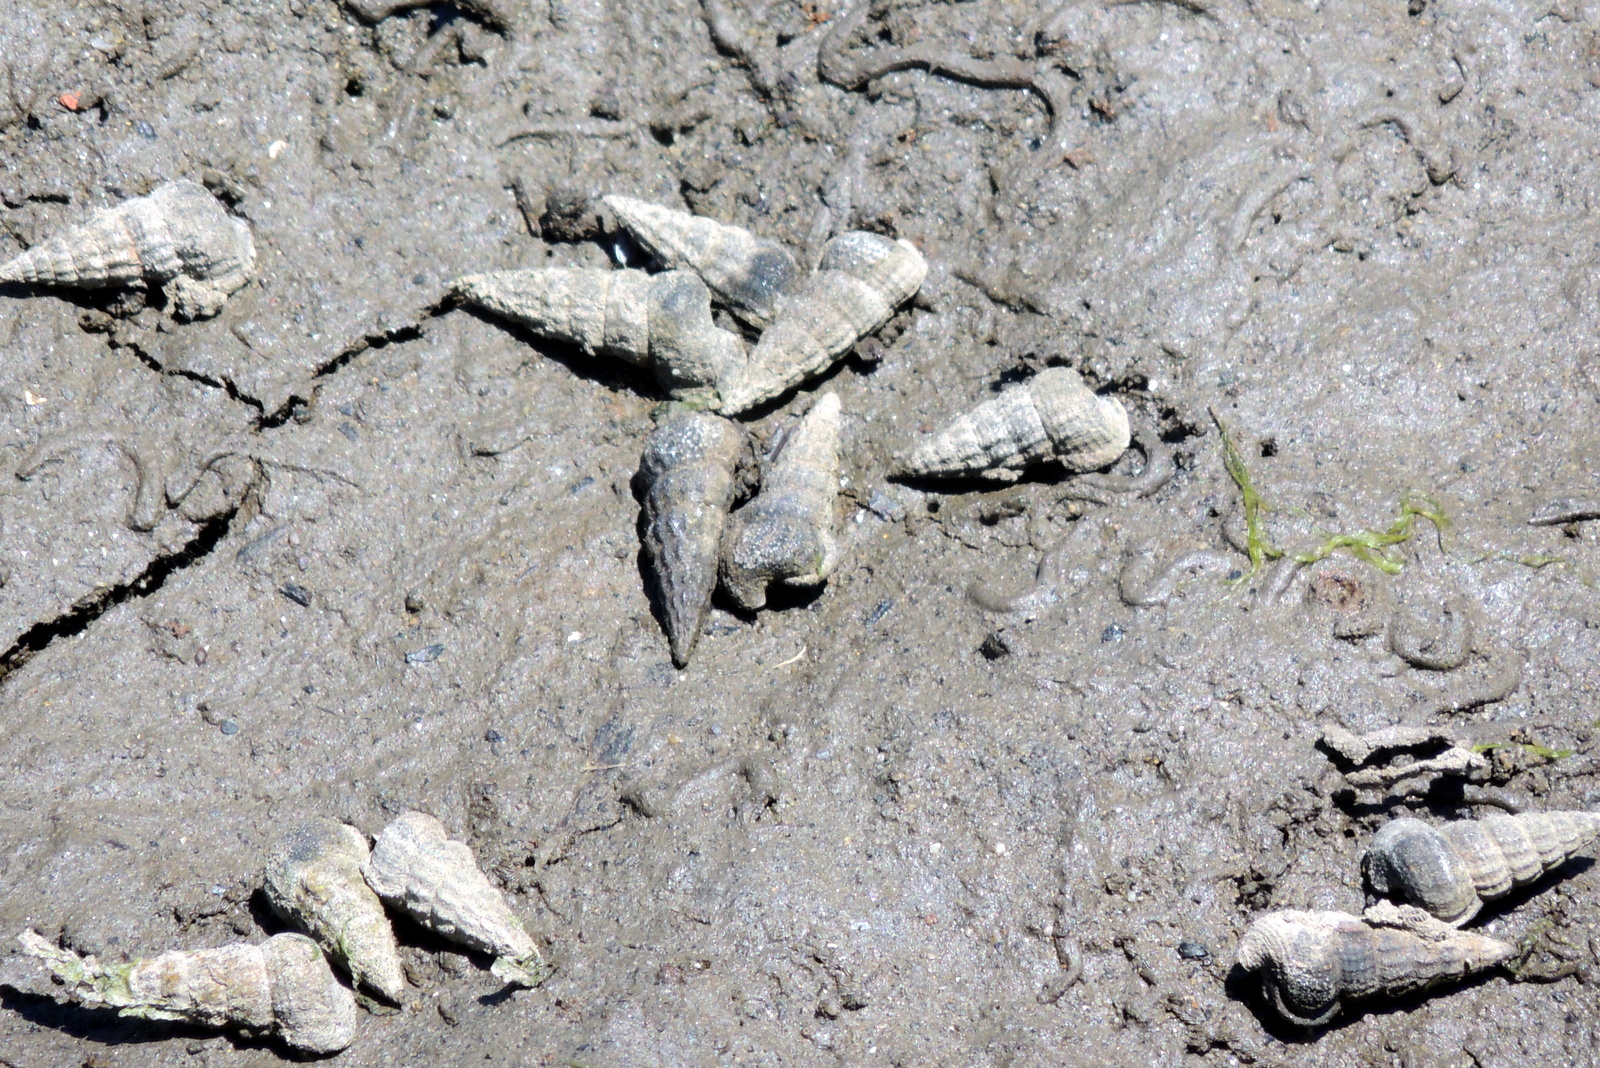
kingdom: Animalia
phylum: Mollusca
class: Gastropoda
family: Potamididae
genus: Cerithideopsis
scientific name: Cerithideopsis californica
